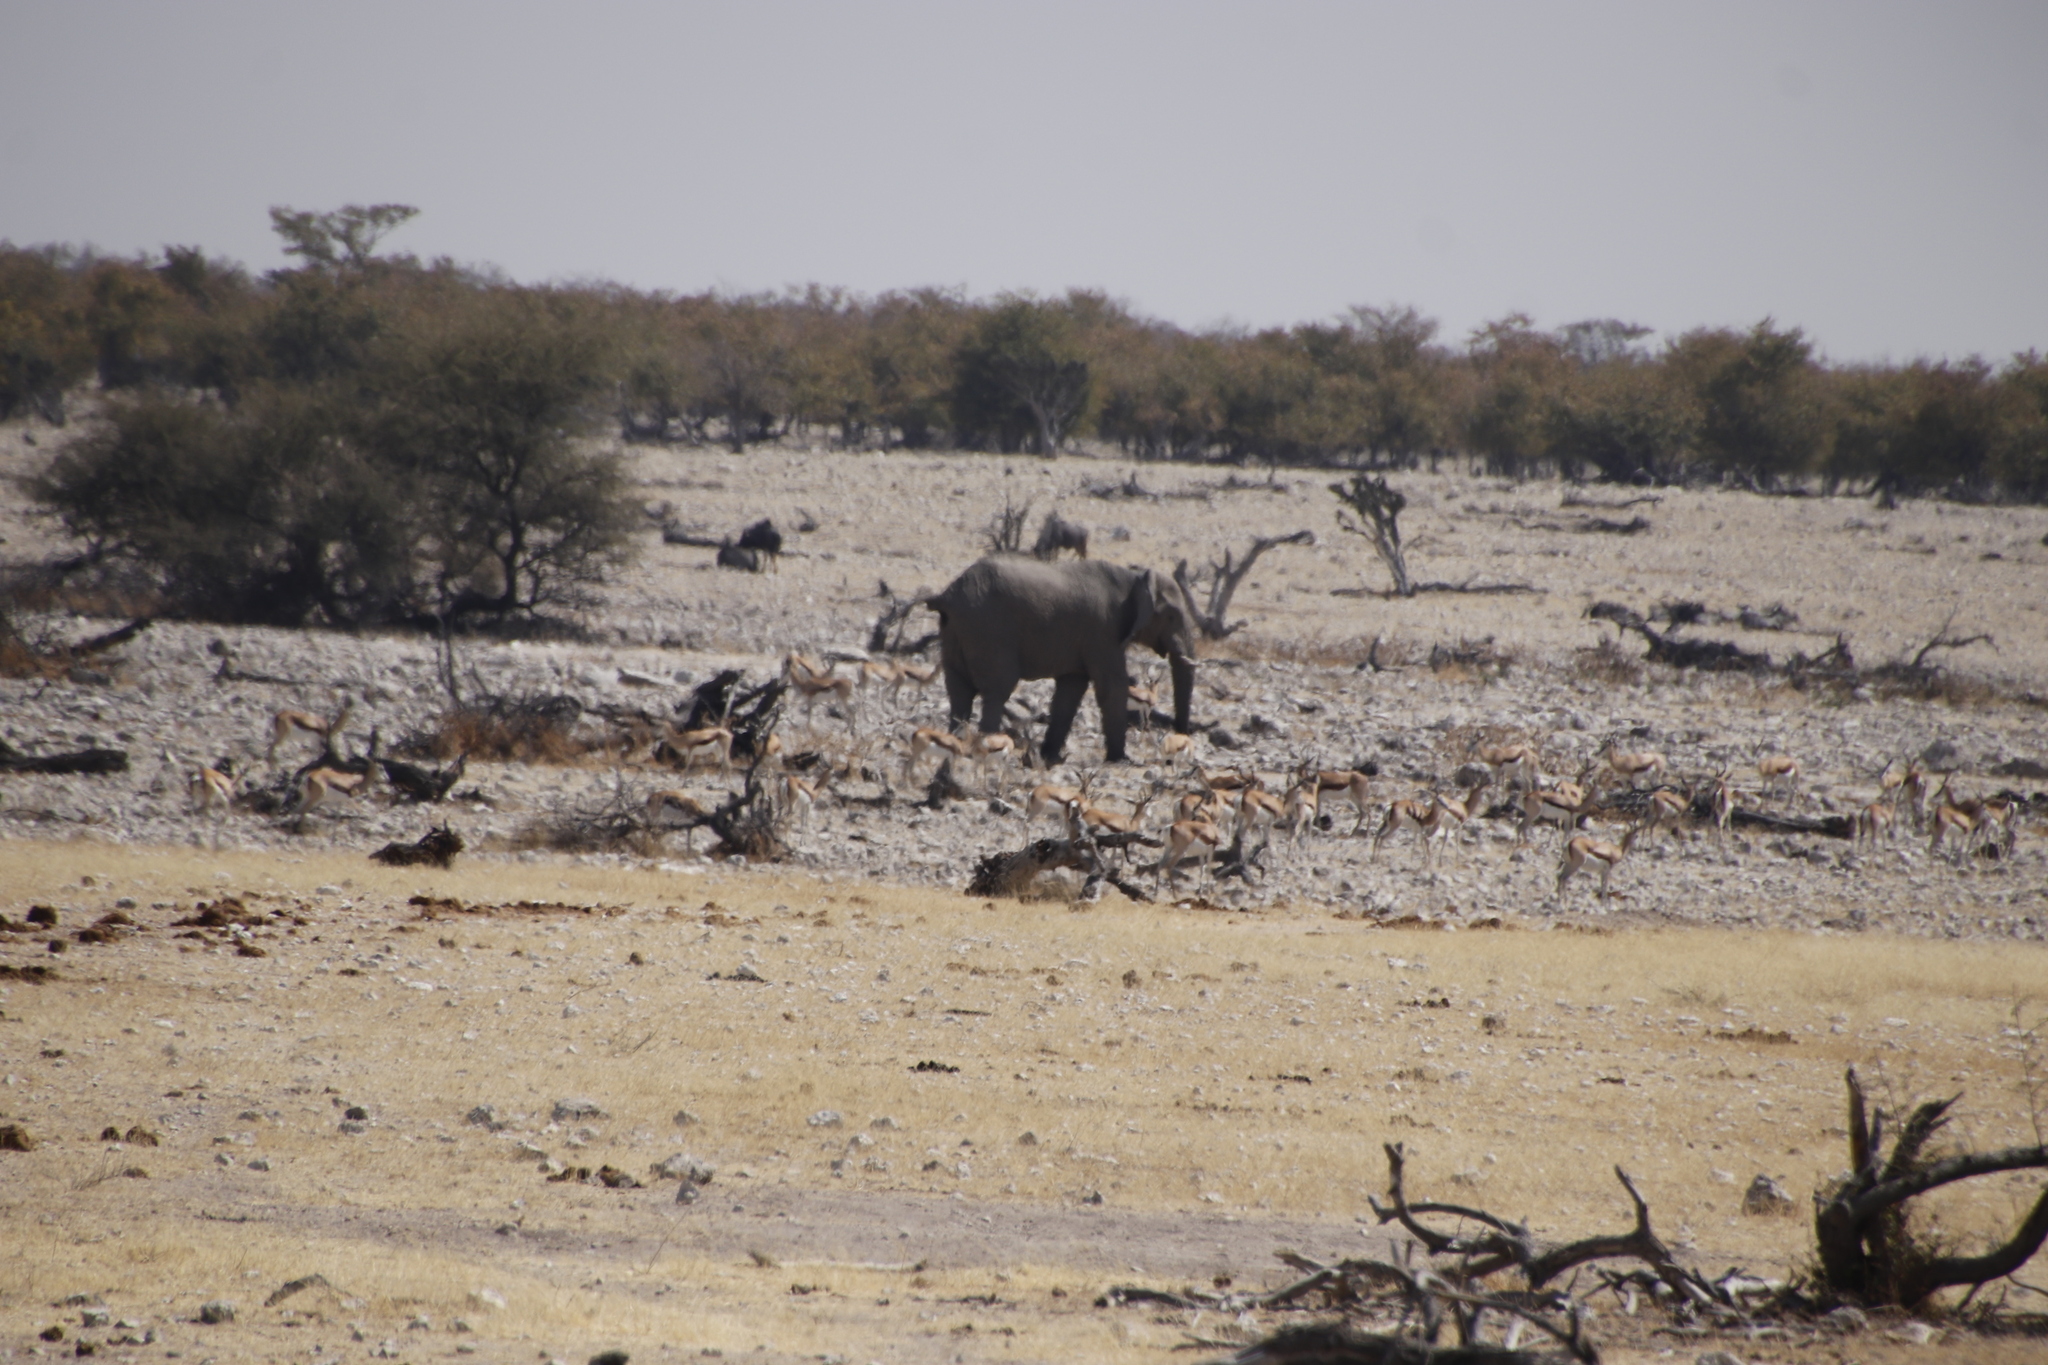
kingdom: Animalia
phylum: Chordata
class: Mammalia
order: Proboscidea
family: Elephantidae
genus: Loxodonta
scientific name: Loxodonta africana
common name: African elephant
